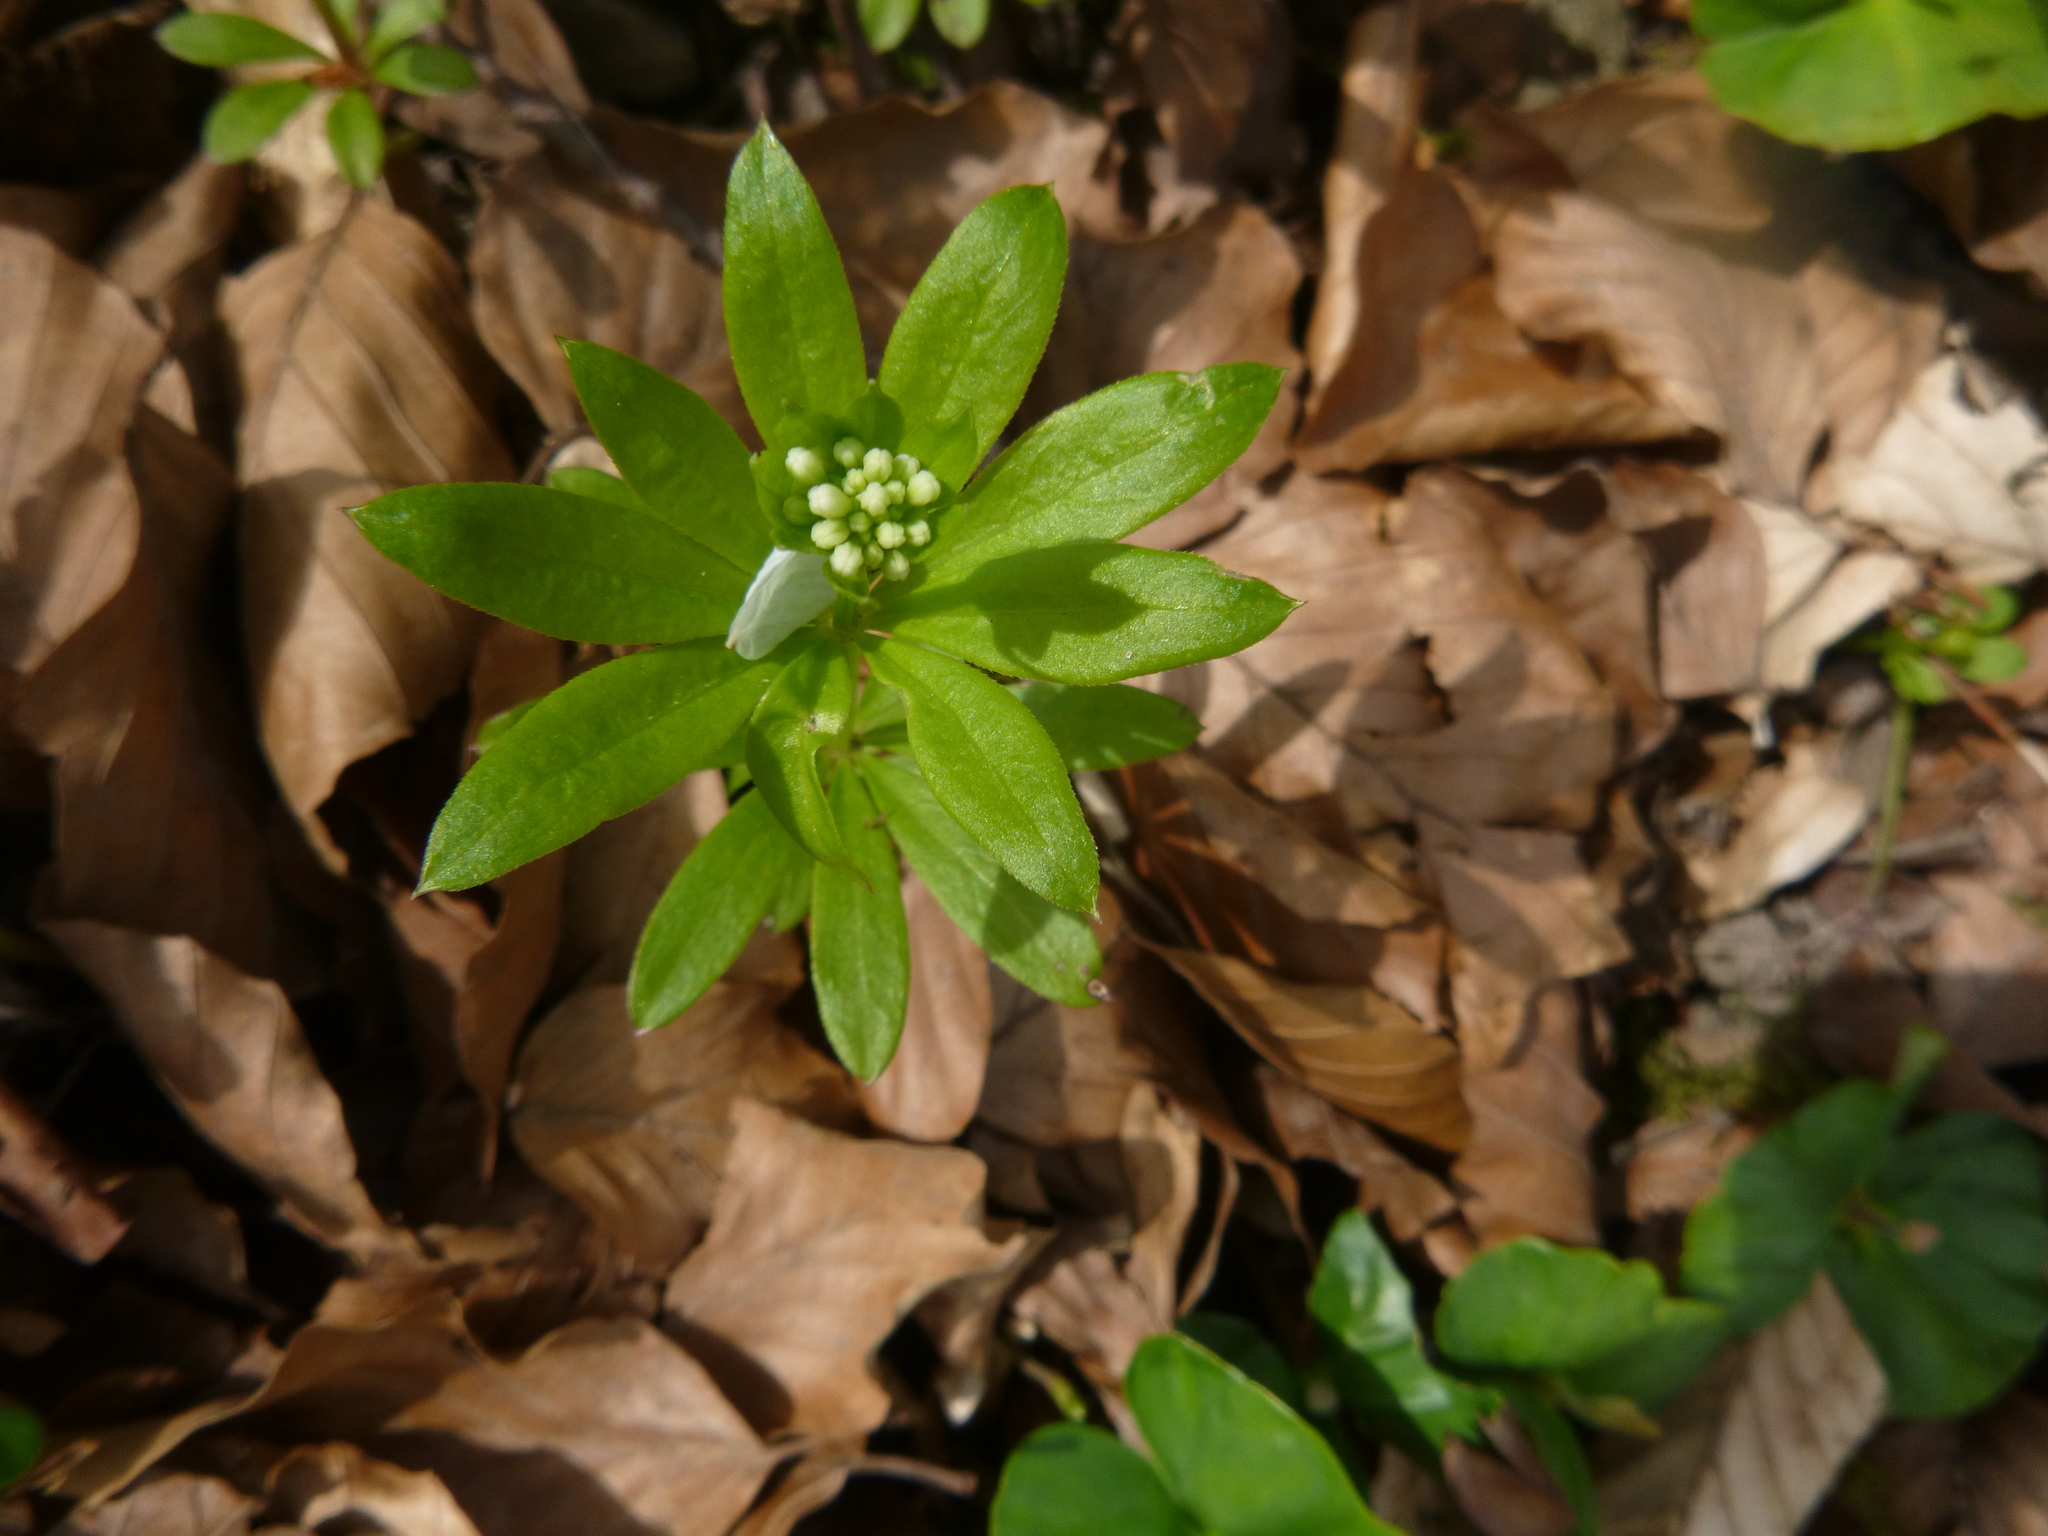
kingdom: Plantae
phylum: Tracheophyta
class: Magnoliopsida
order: Gentianales
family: Rubiaceae
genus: Galium
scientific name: Galium odoratum
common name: Sweet woodruff
